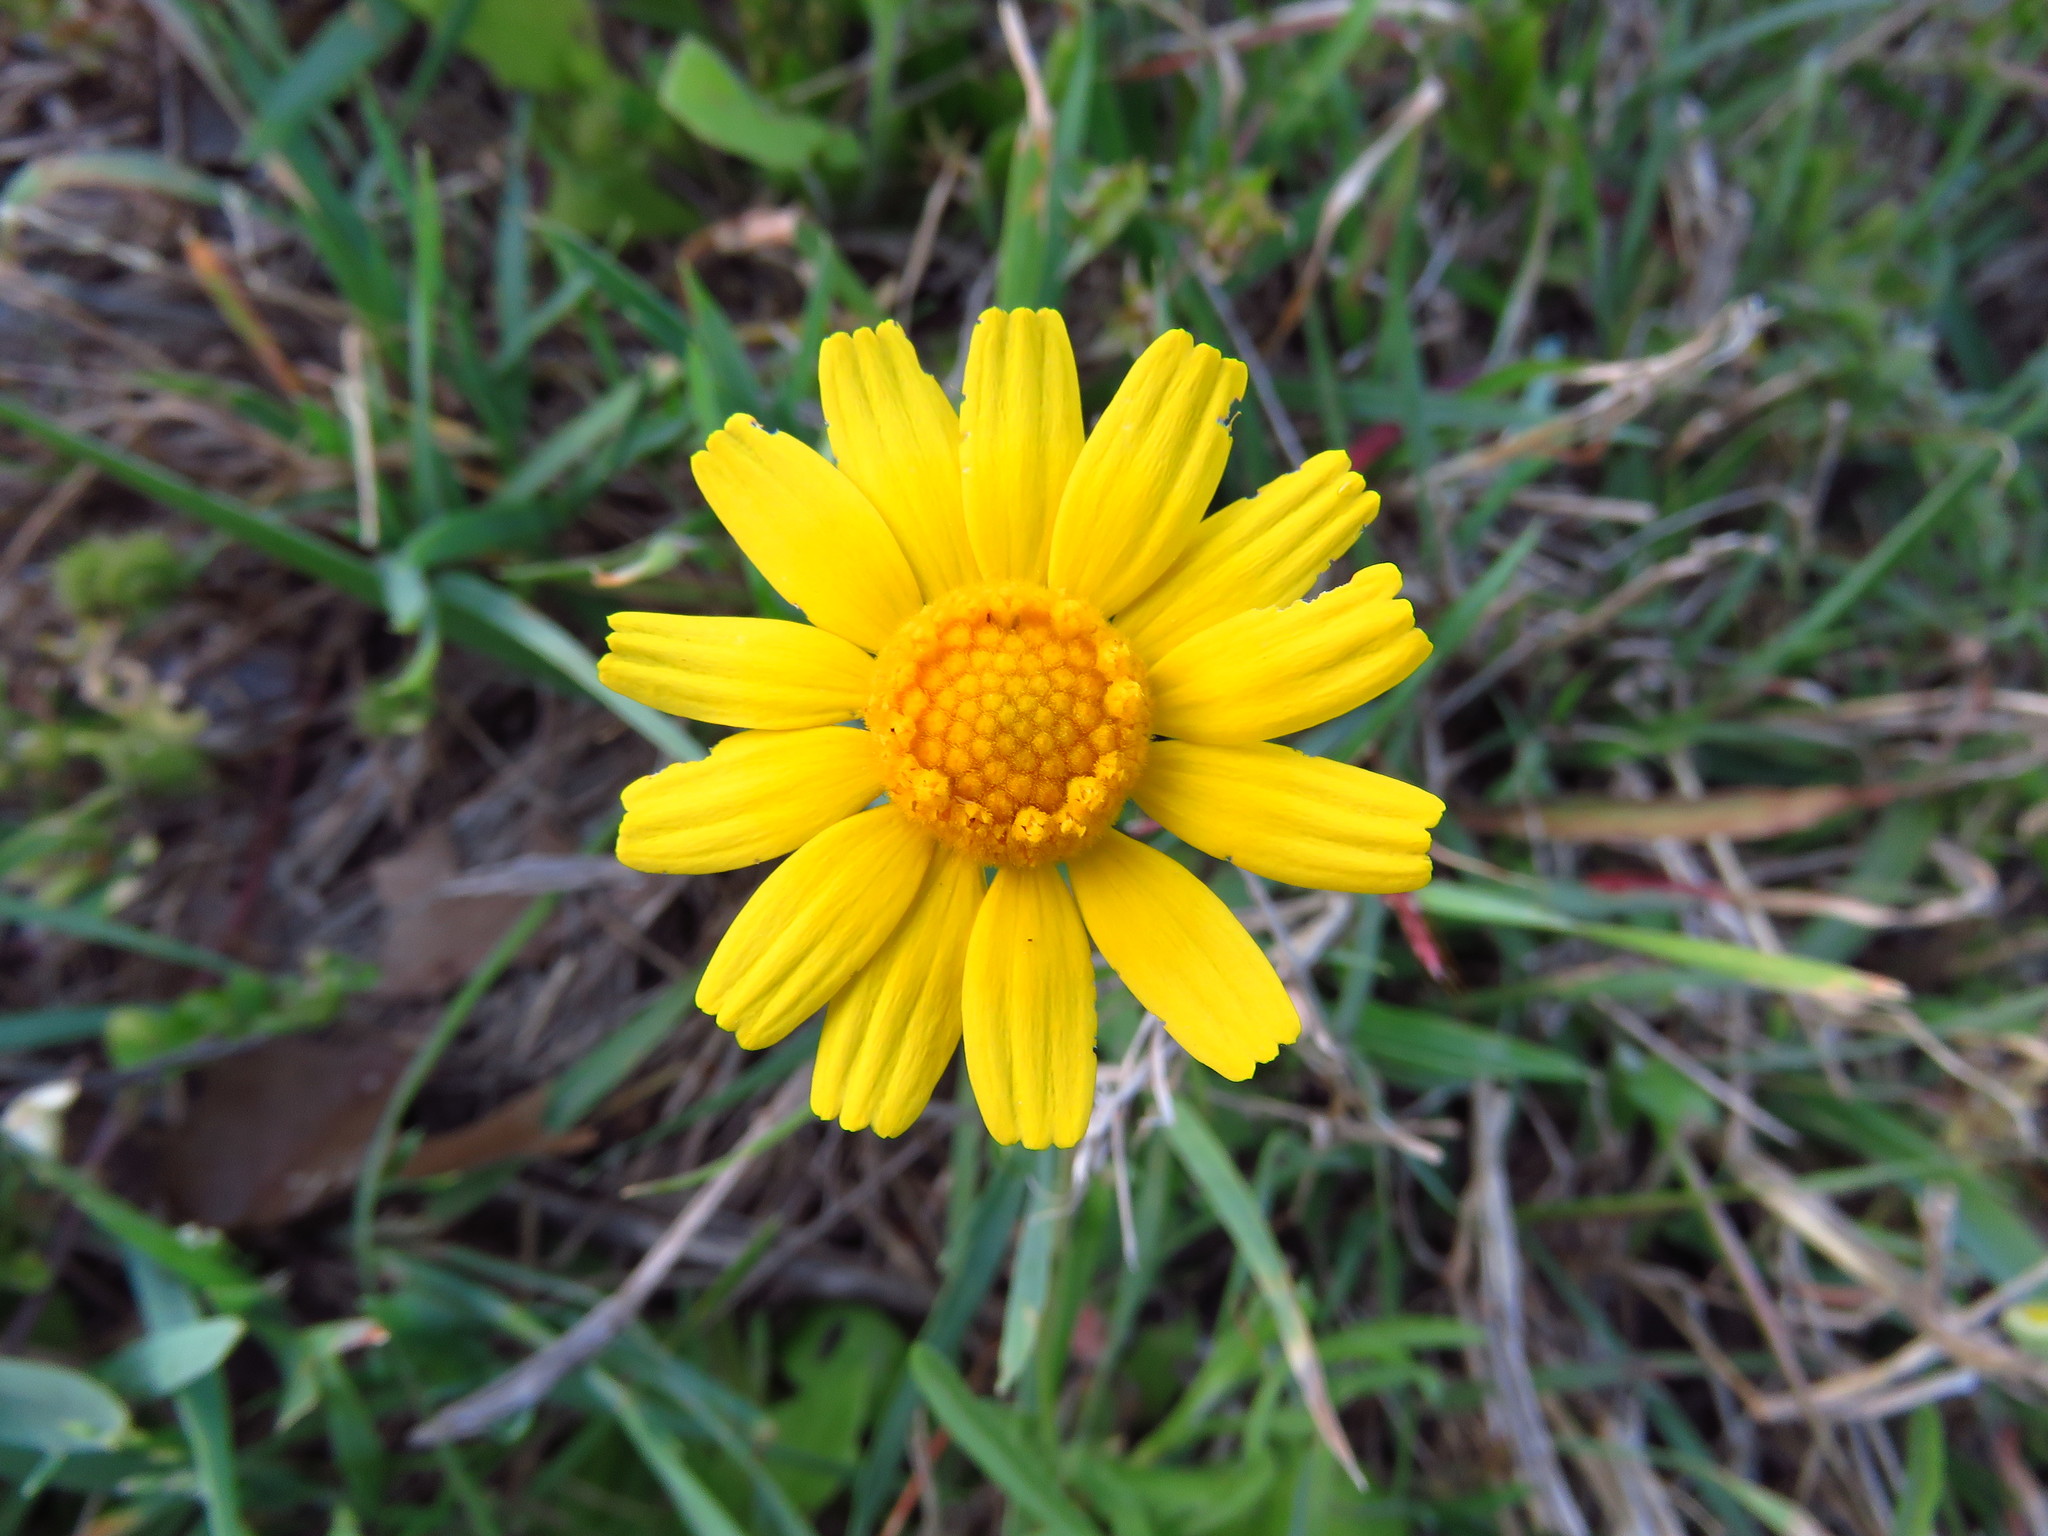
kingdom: Plantae
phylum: Tracheophyta
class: Magnoliopsida
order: Asterales
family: Asteraceae
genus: Tetraneuris
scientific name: Tetraneuris linearifolia
